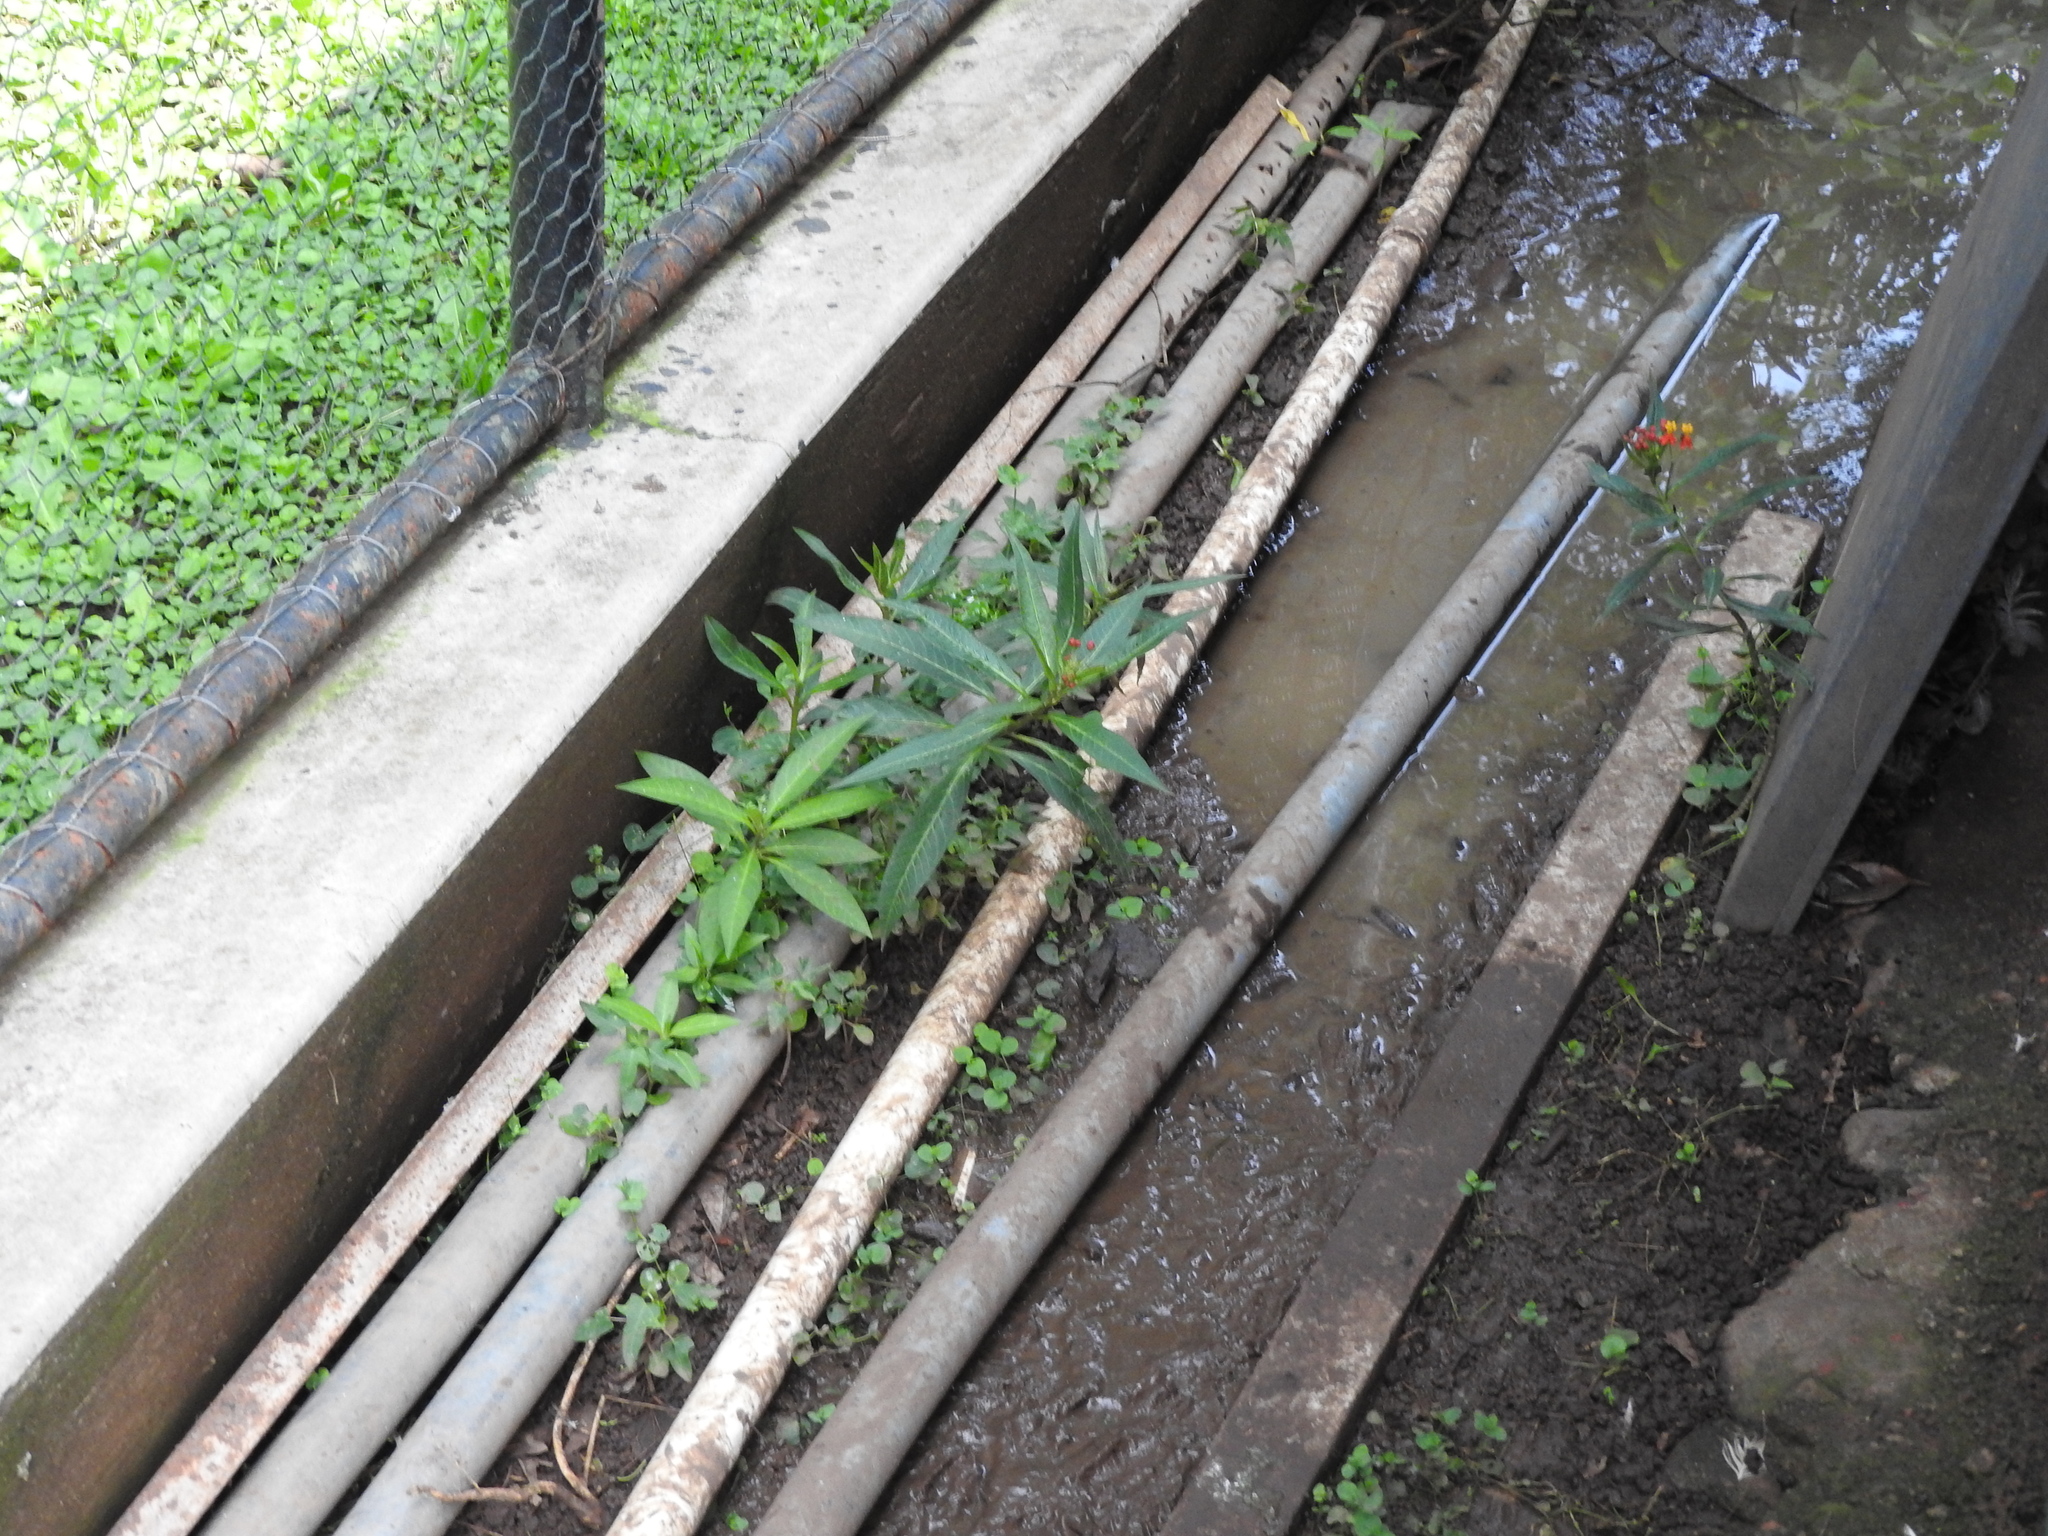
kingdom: Plantae
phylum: Tracheophyta
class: Magnoliopsida
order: Gentianales
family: Apocynaceae
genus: Asclepias
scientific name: Asclepias curassavica
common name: Bloodflower
